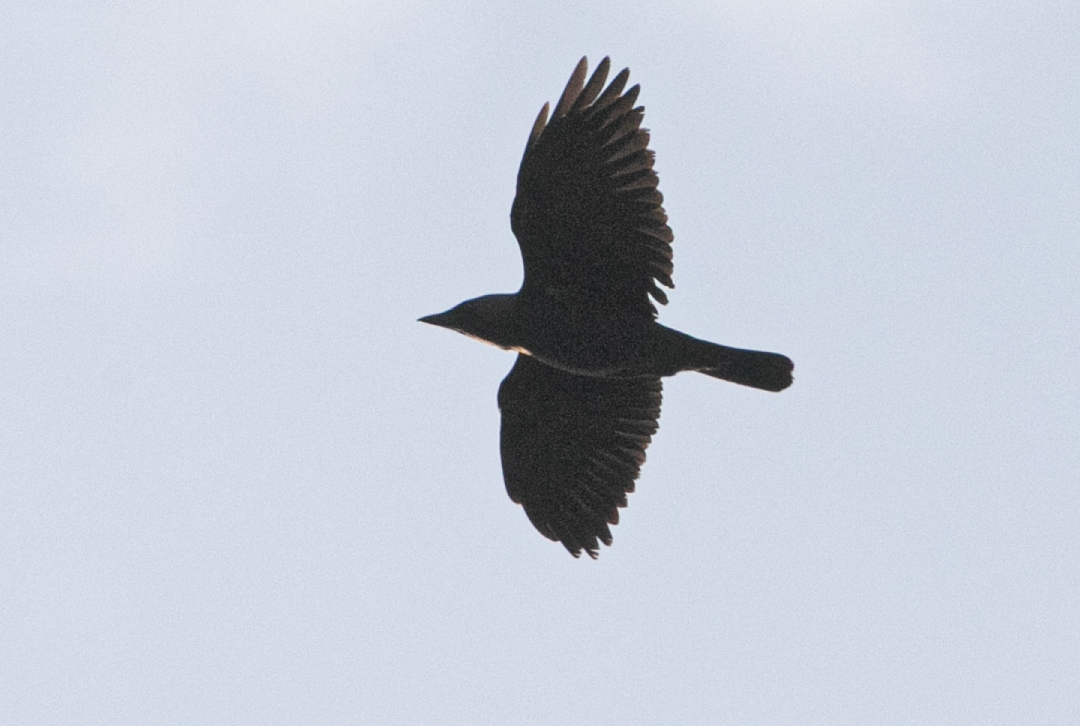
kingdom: Animalia
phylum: Chordata
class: Aves
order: Passeriformes
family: Corvidae
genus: Coloeus
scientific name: Coloeus monedula
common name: Western jackdaw
